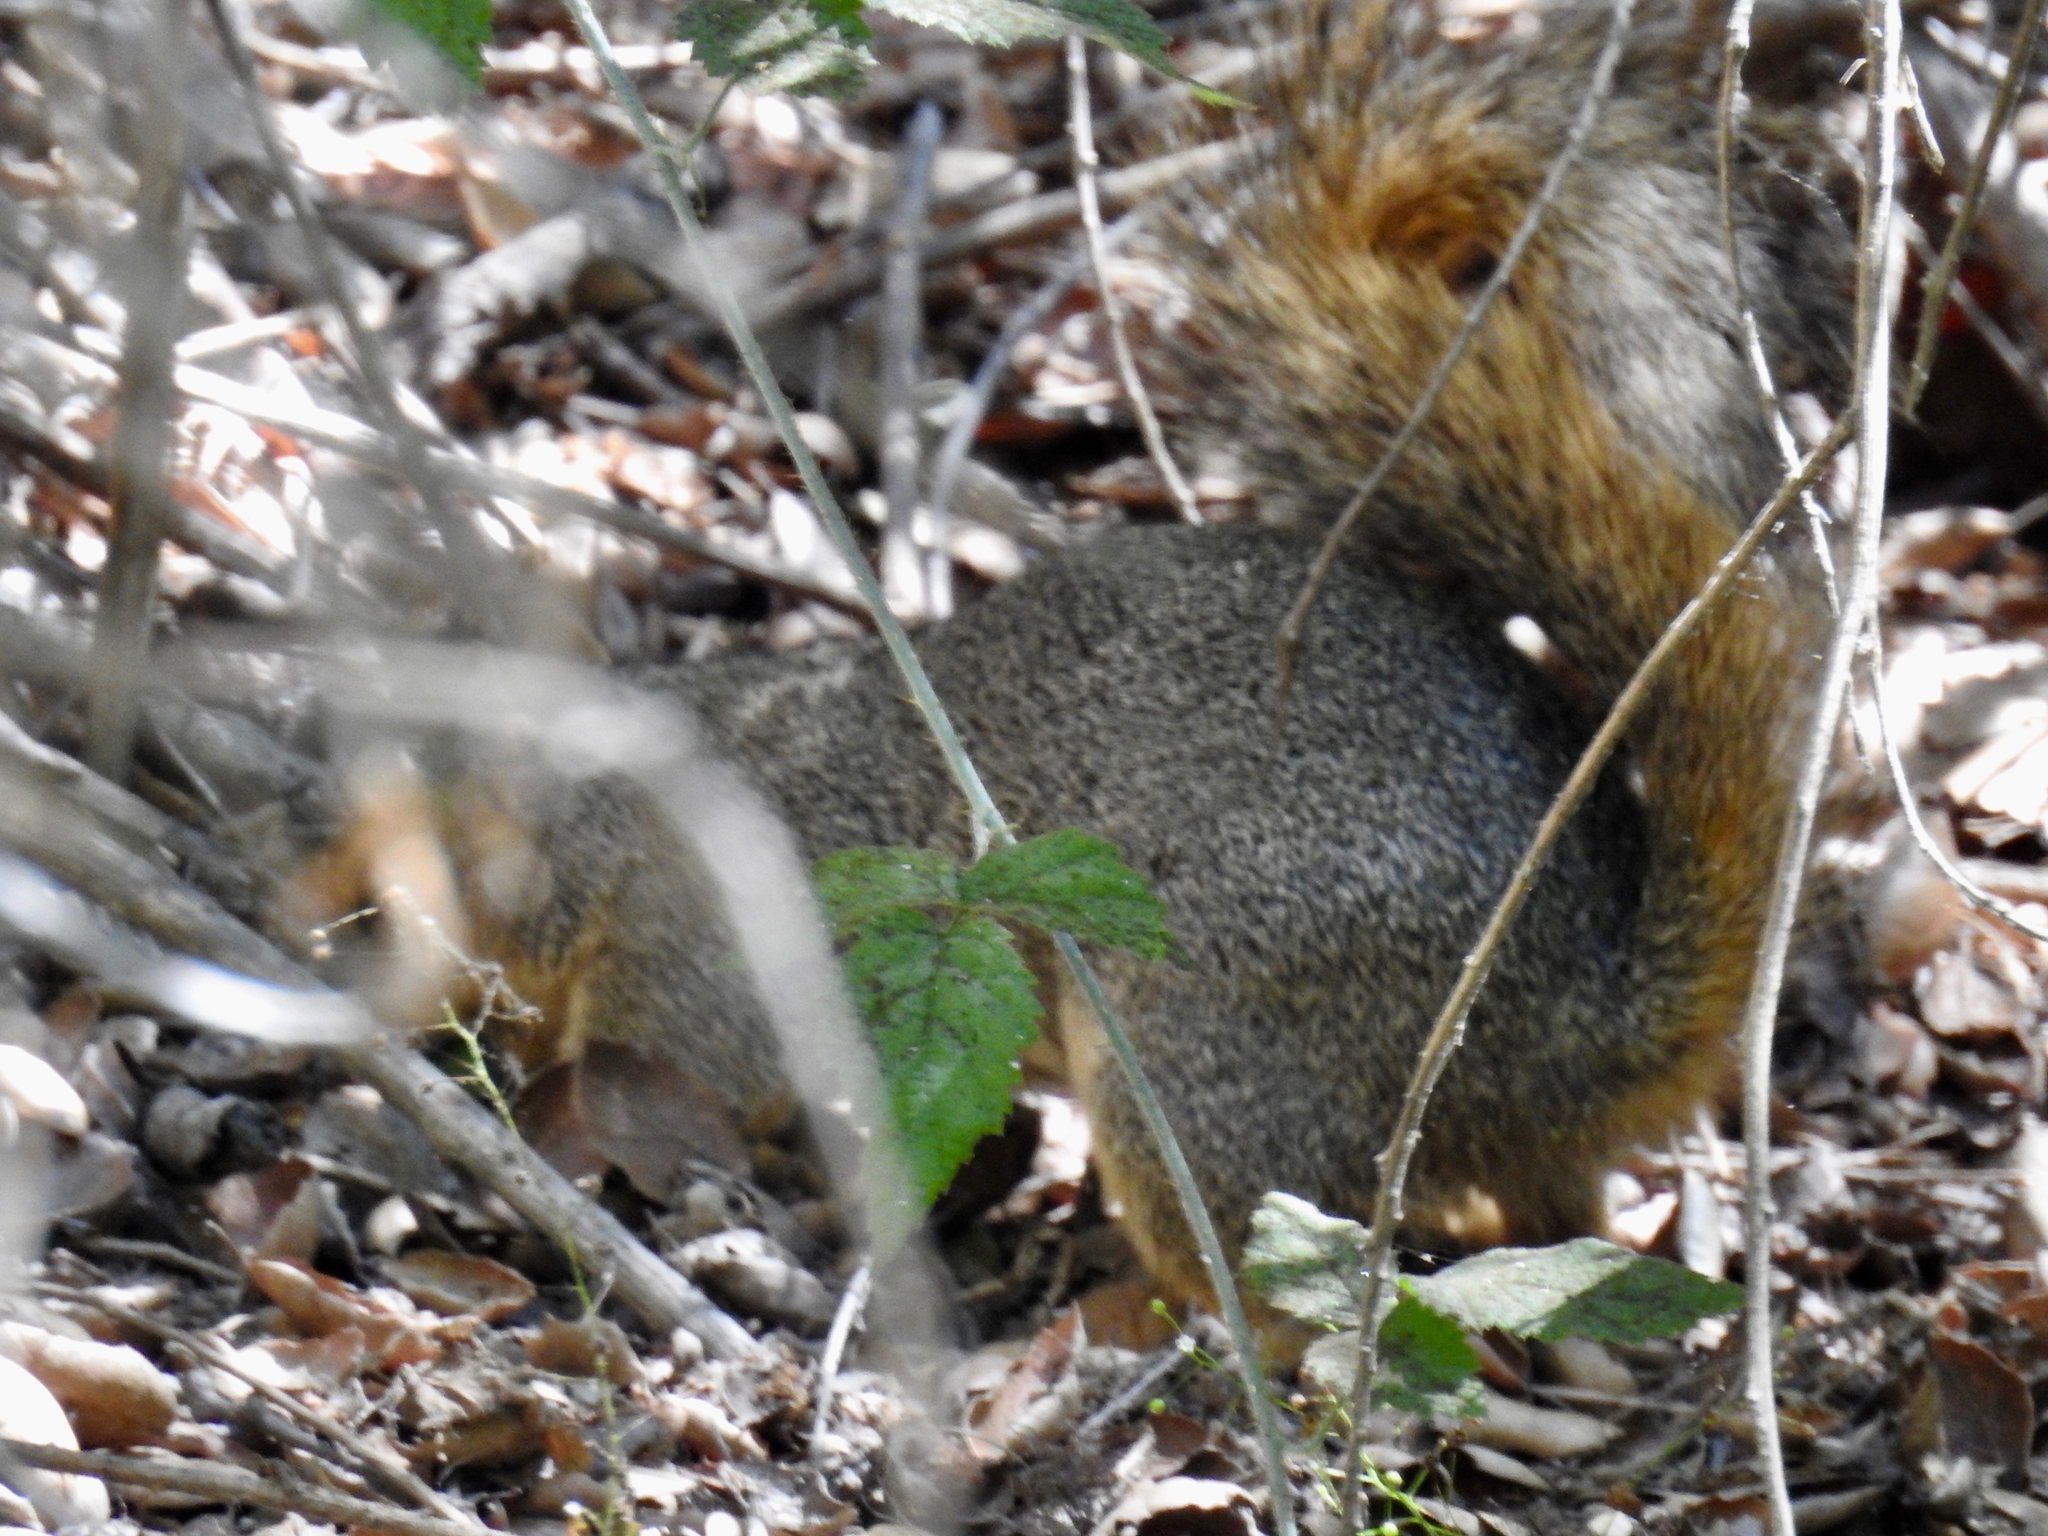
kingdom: Animalia
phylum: Chordata
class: Mammalia
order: Rodentia
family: Sciuridae
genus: Sciurus
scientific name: Sciurus niger
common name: Fox squirrel
